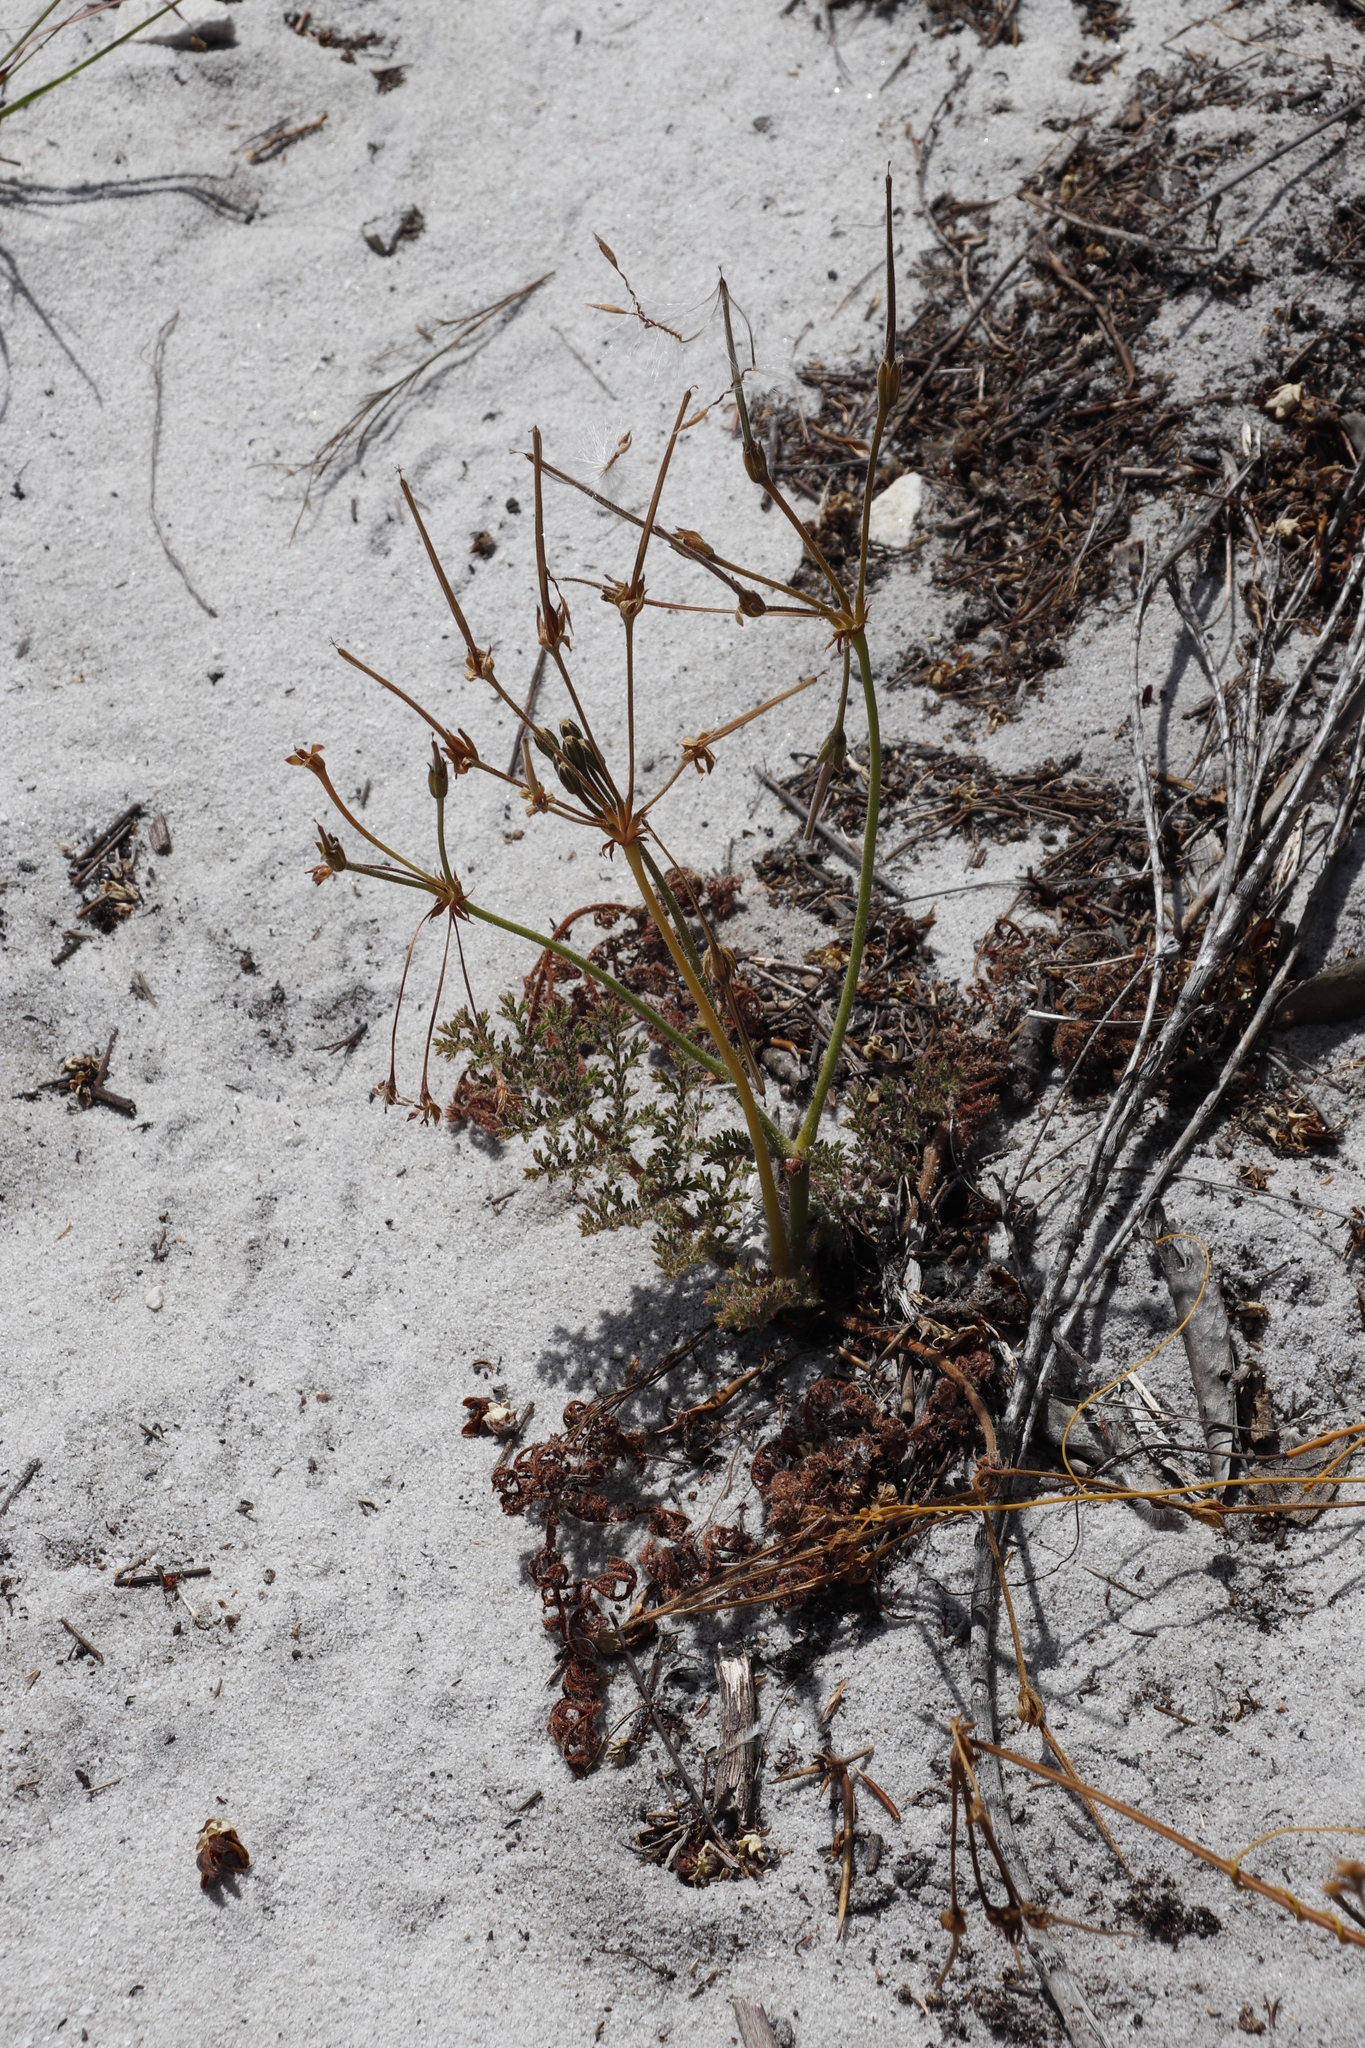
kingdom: Plantae
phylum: Tracheophyta
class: Magnoliopsida
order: Geraniales
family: Geraniaceae
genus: Pelargonium
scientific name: Pelargonium triste
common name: Night-scent pelargonium
